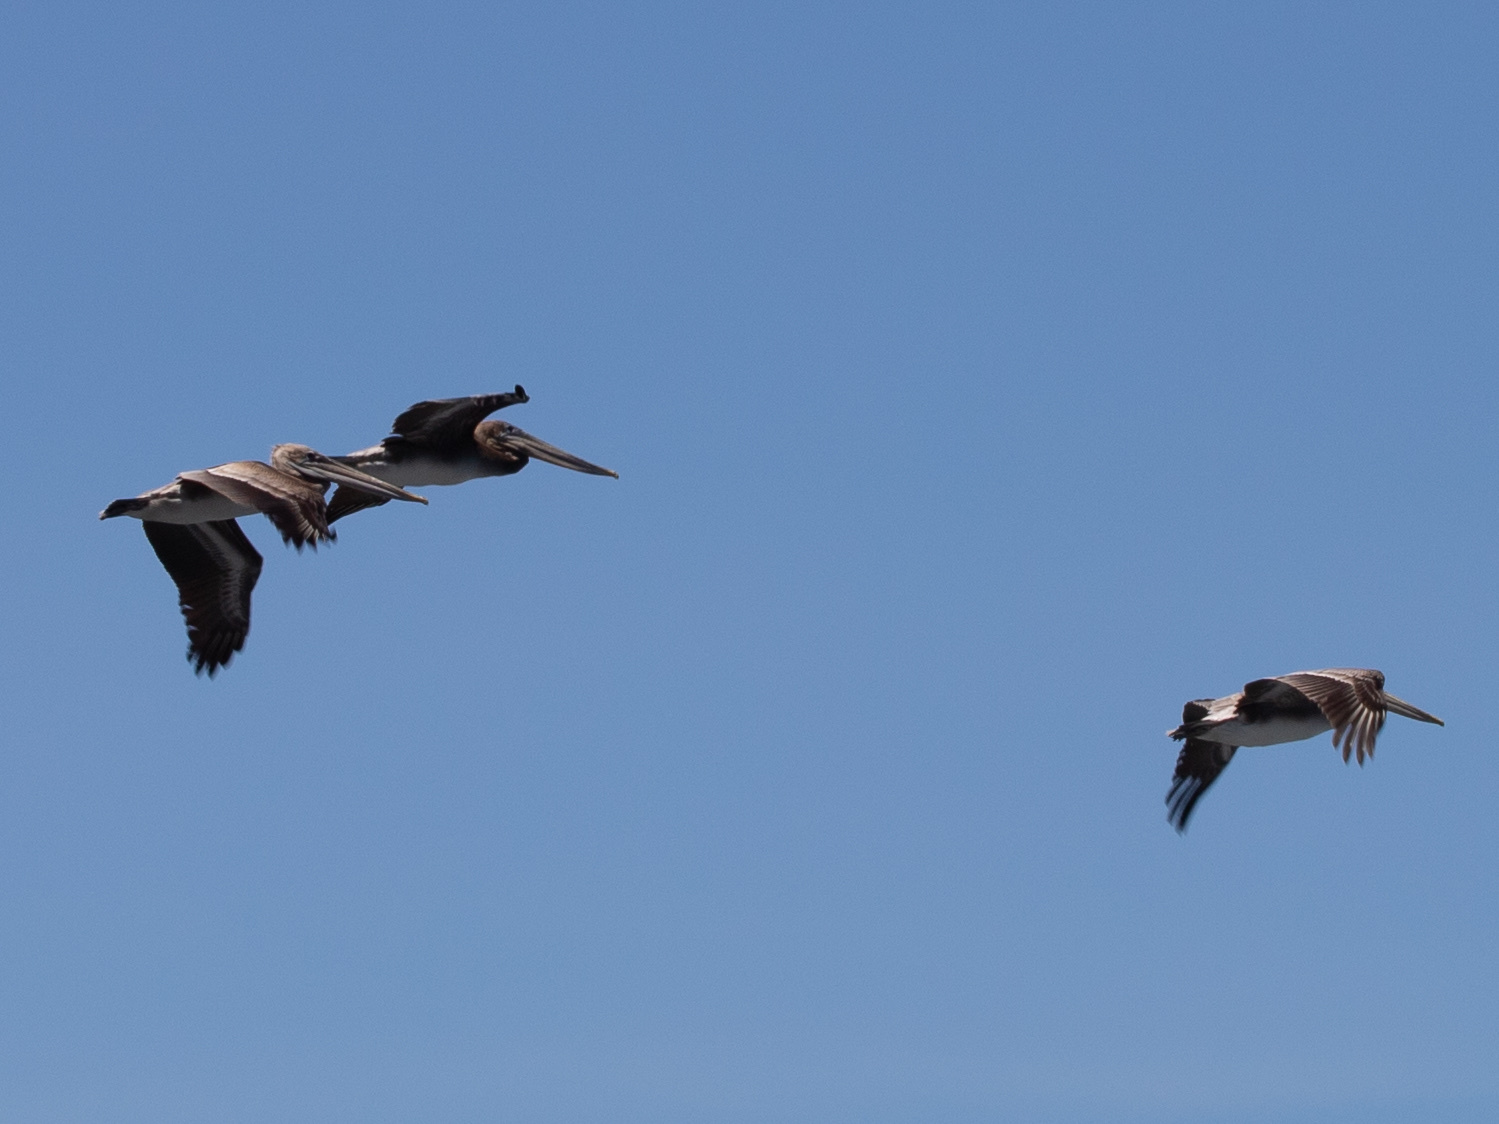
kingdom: Animalia
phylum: Chordata
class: Aves
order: Pelecaniformes
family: Pelecanidae
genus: Pelecanus
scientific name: Pelecanus occidentalis
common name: Brown pelican
